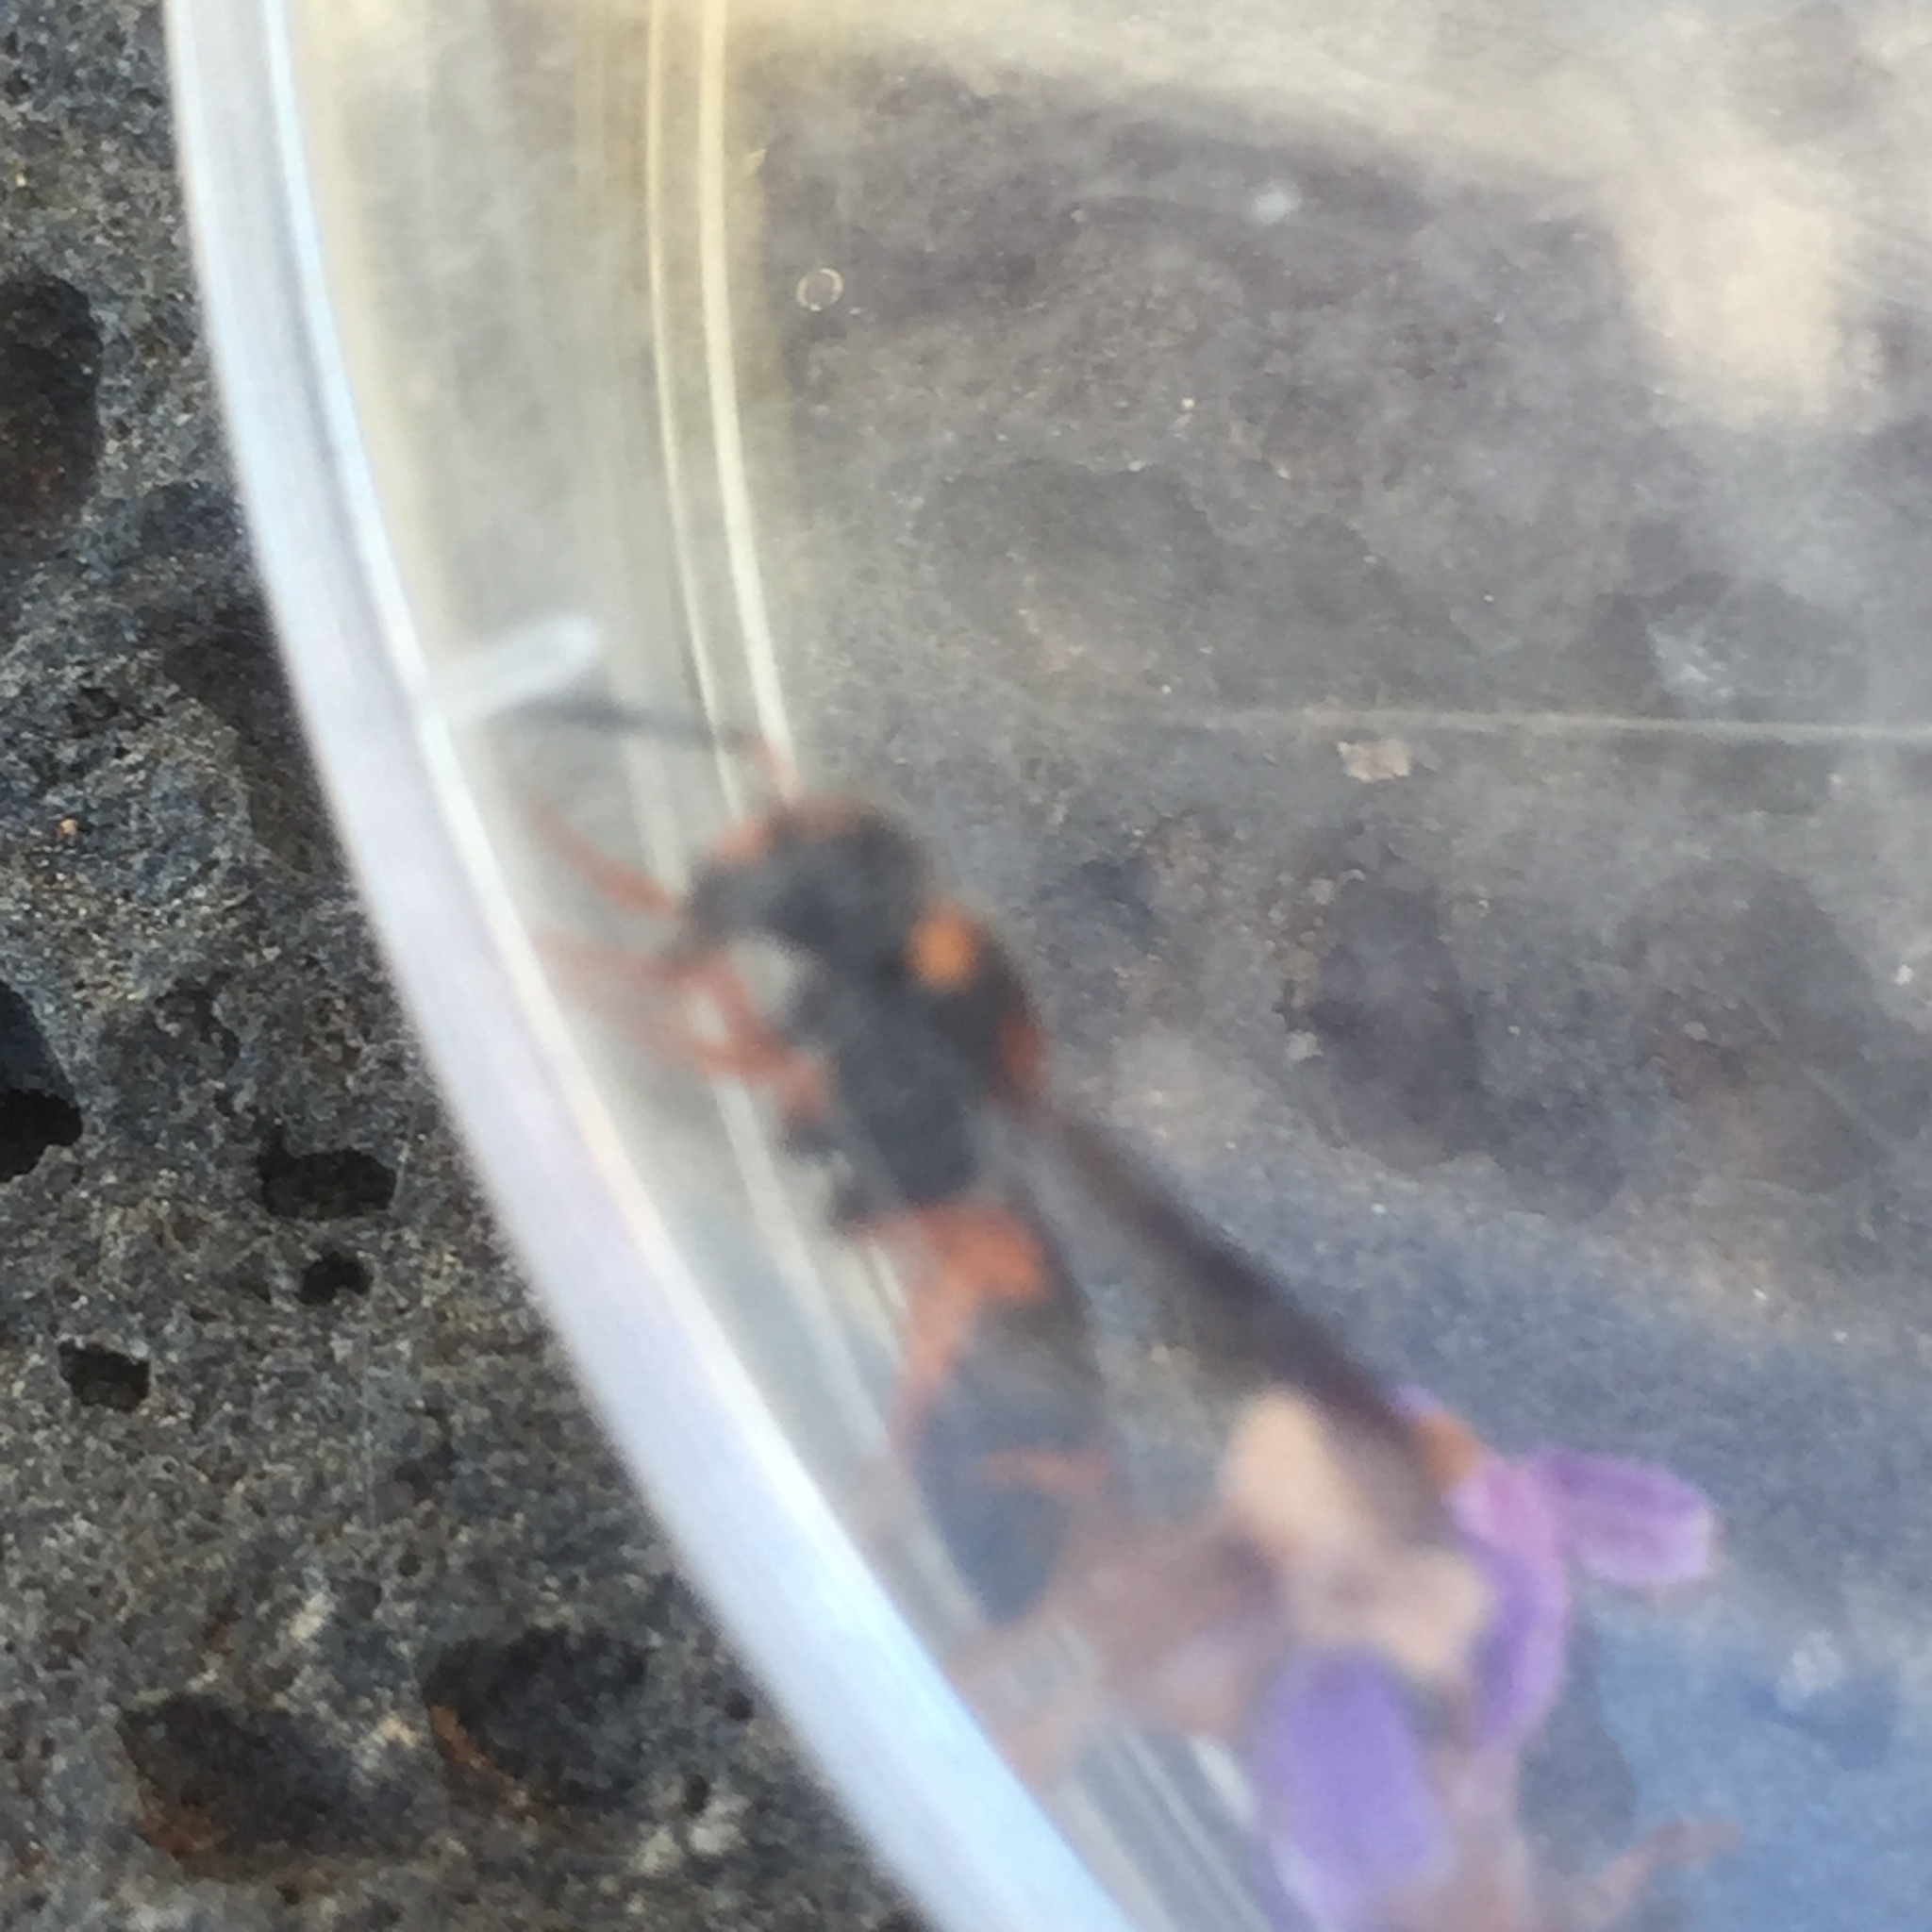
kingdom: Animalia
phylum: Arthropoda
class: Insecta
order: Hymenoptera
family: Eumenidae
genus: Leptochilus
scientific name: Leptochilus fortunatus
